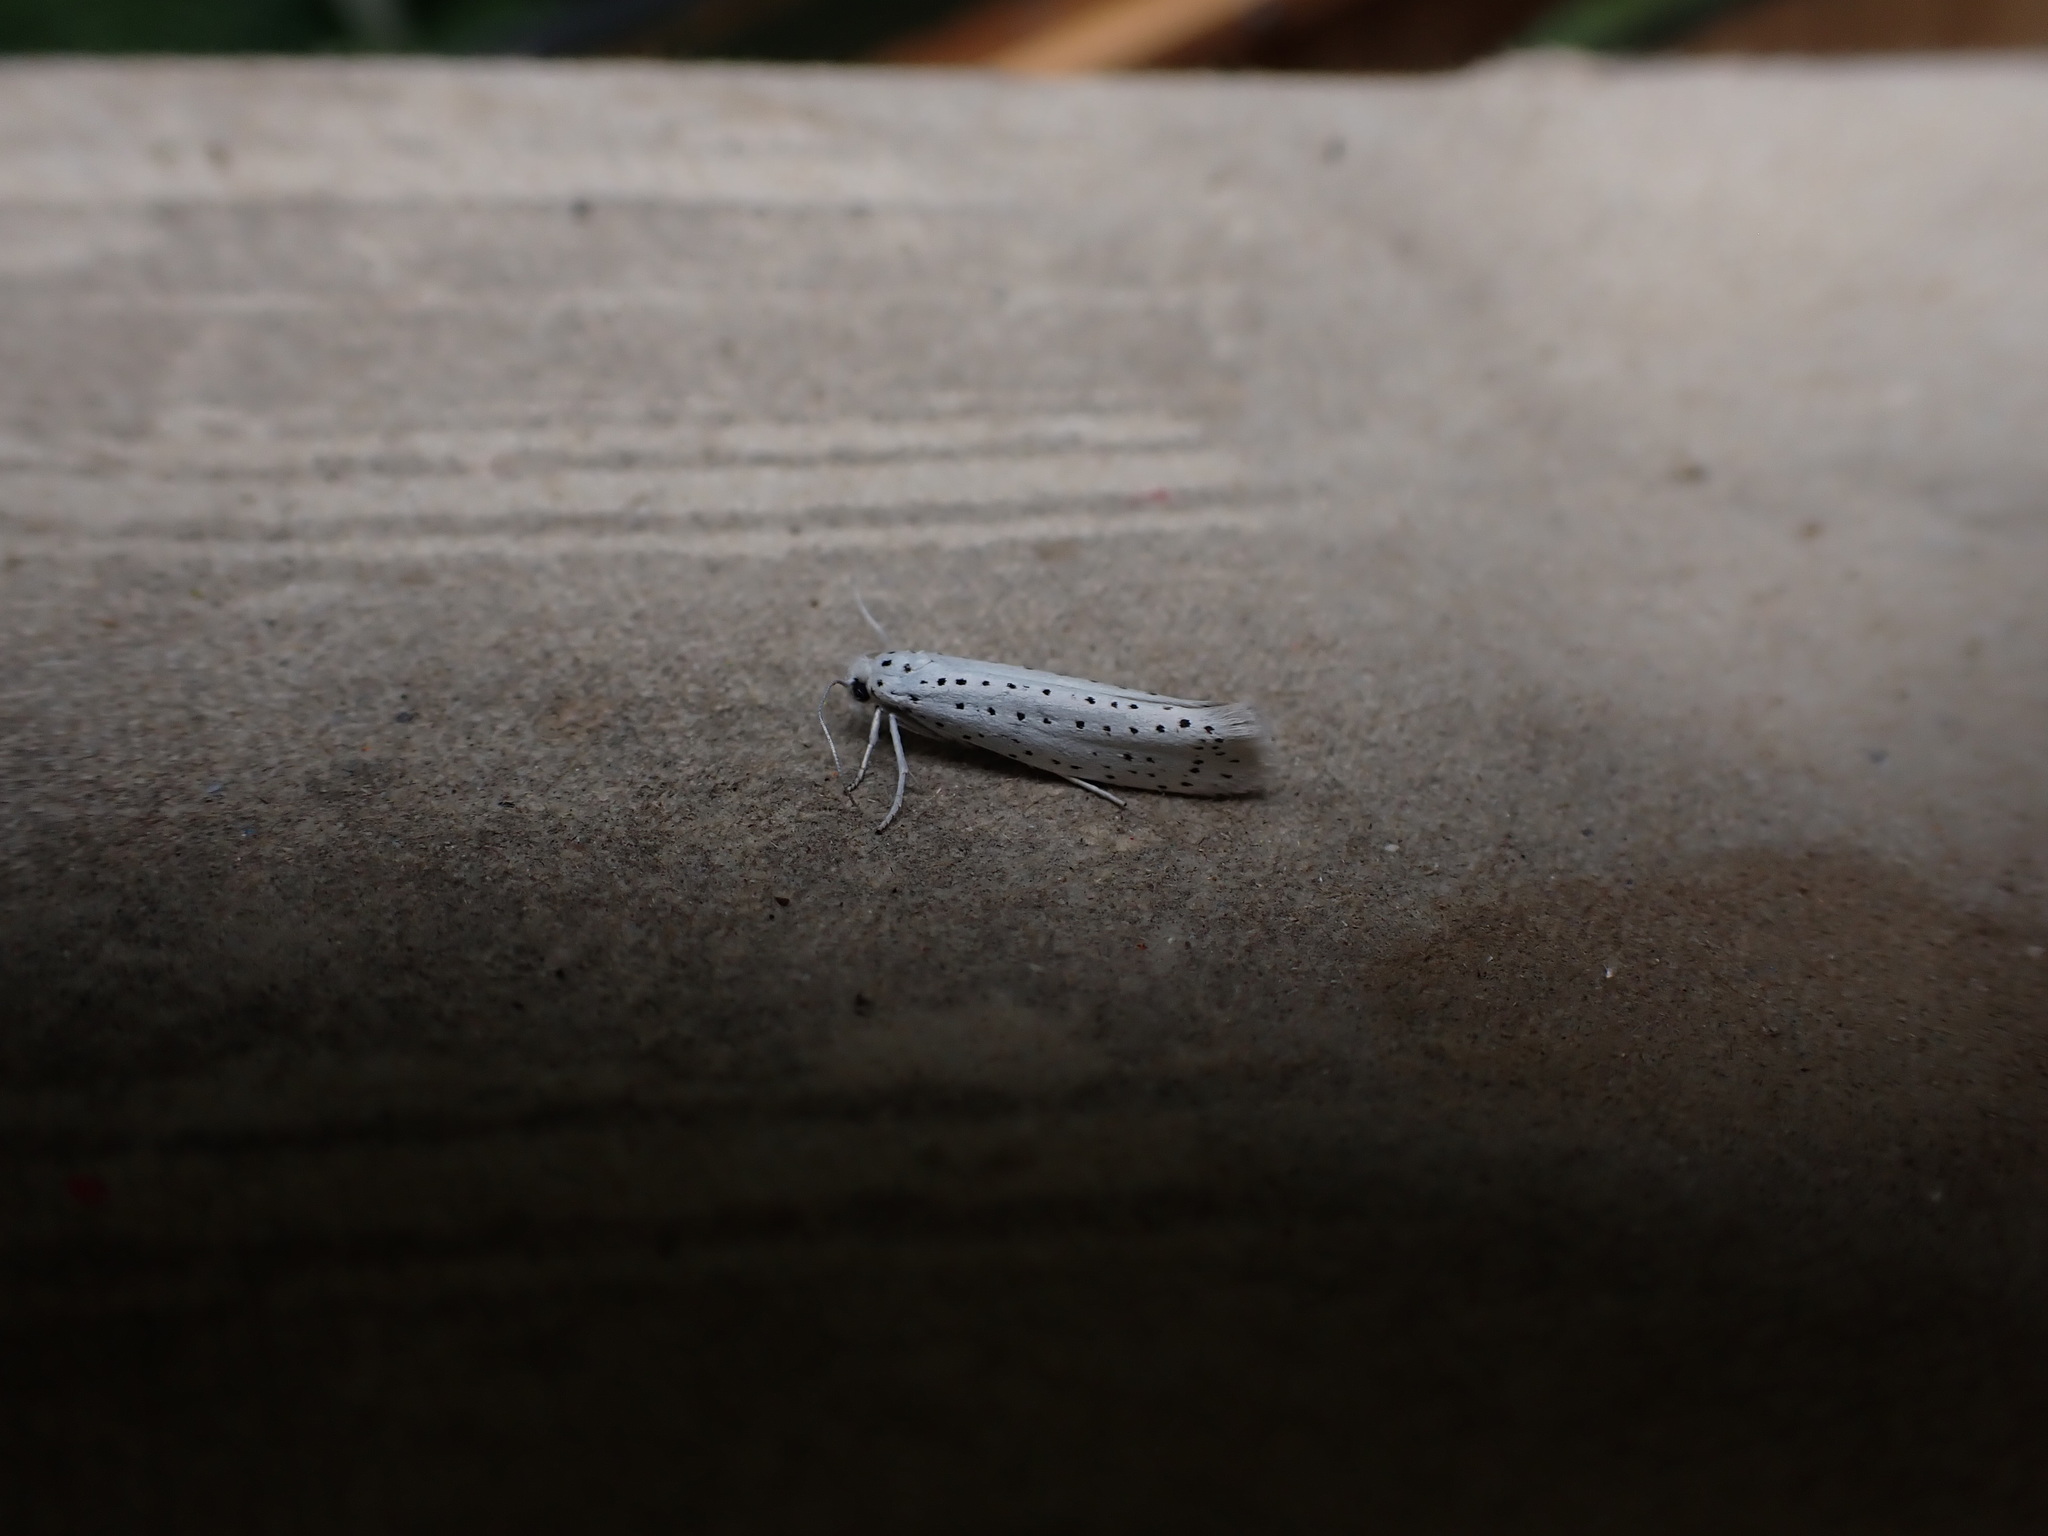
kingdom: Animalia
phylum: Arthropoda
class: Insecta
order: Lepidoptera
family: Yponomeutidae
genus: Yponomeuta
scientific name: Yponomeuta evonymella
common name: Bird-cherry ermine
